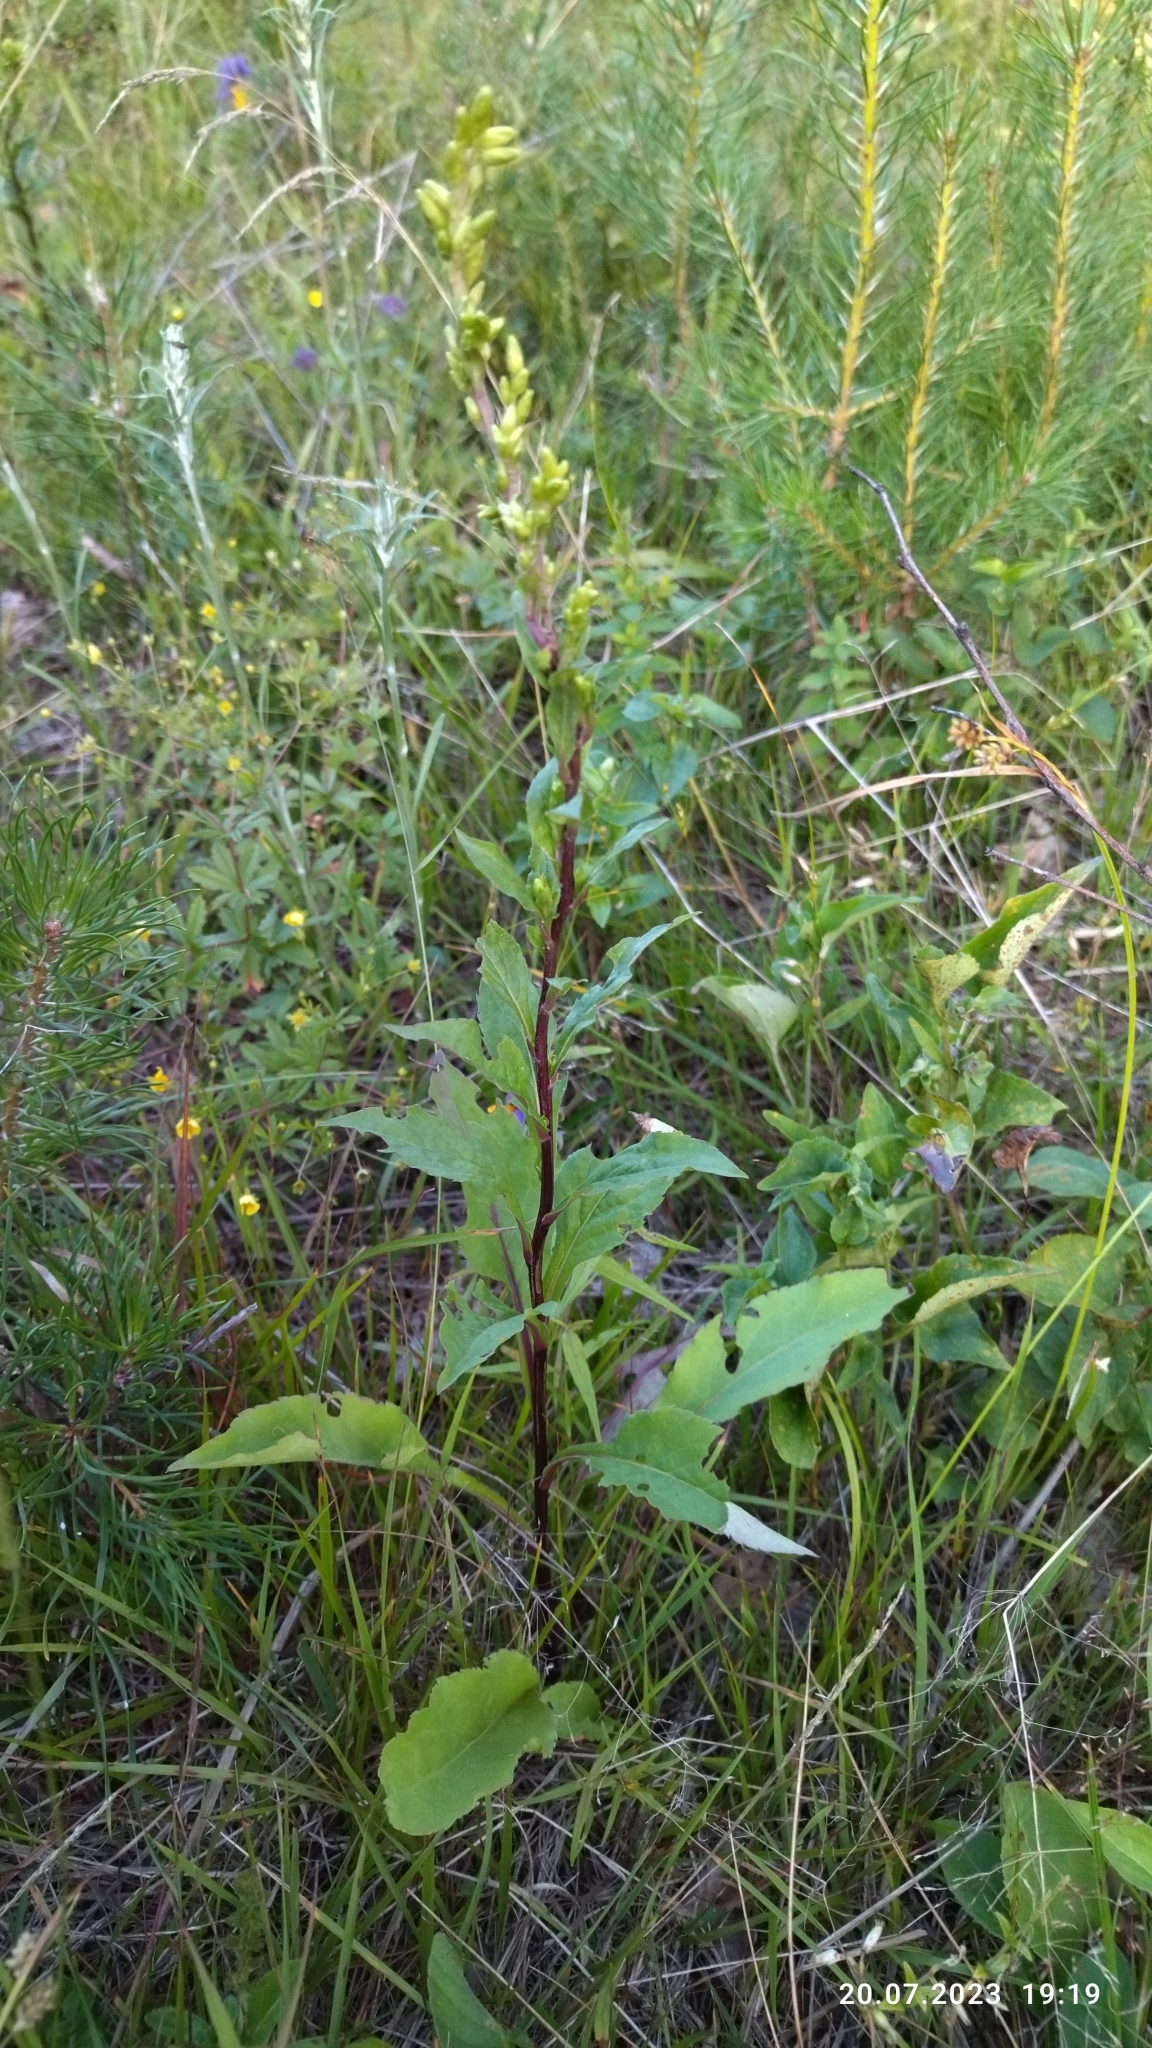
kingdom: Plantae
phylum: Tracheophyta
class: Magnoliopsida
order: Asterales
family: Asteraceae
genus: Solidago
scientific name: Solidago virgaurea
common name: Goldenrod
